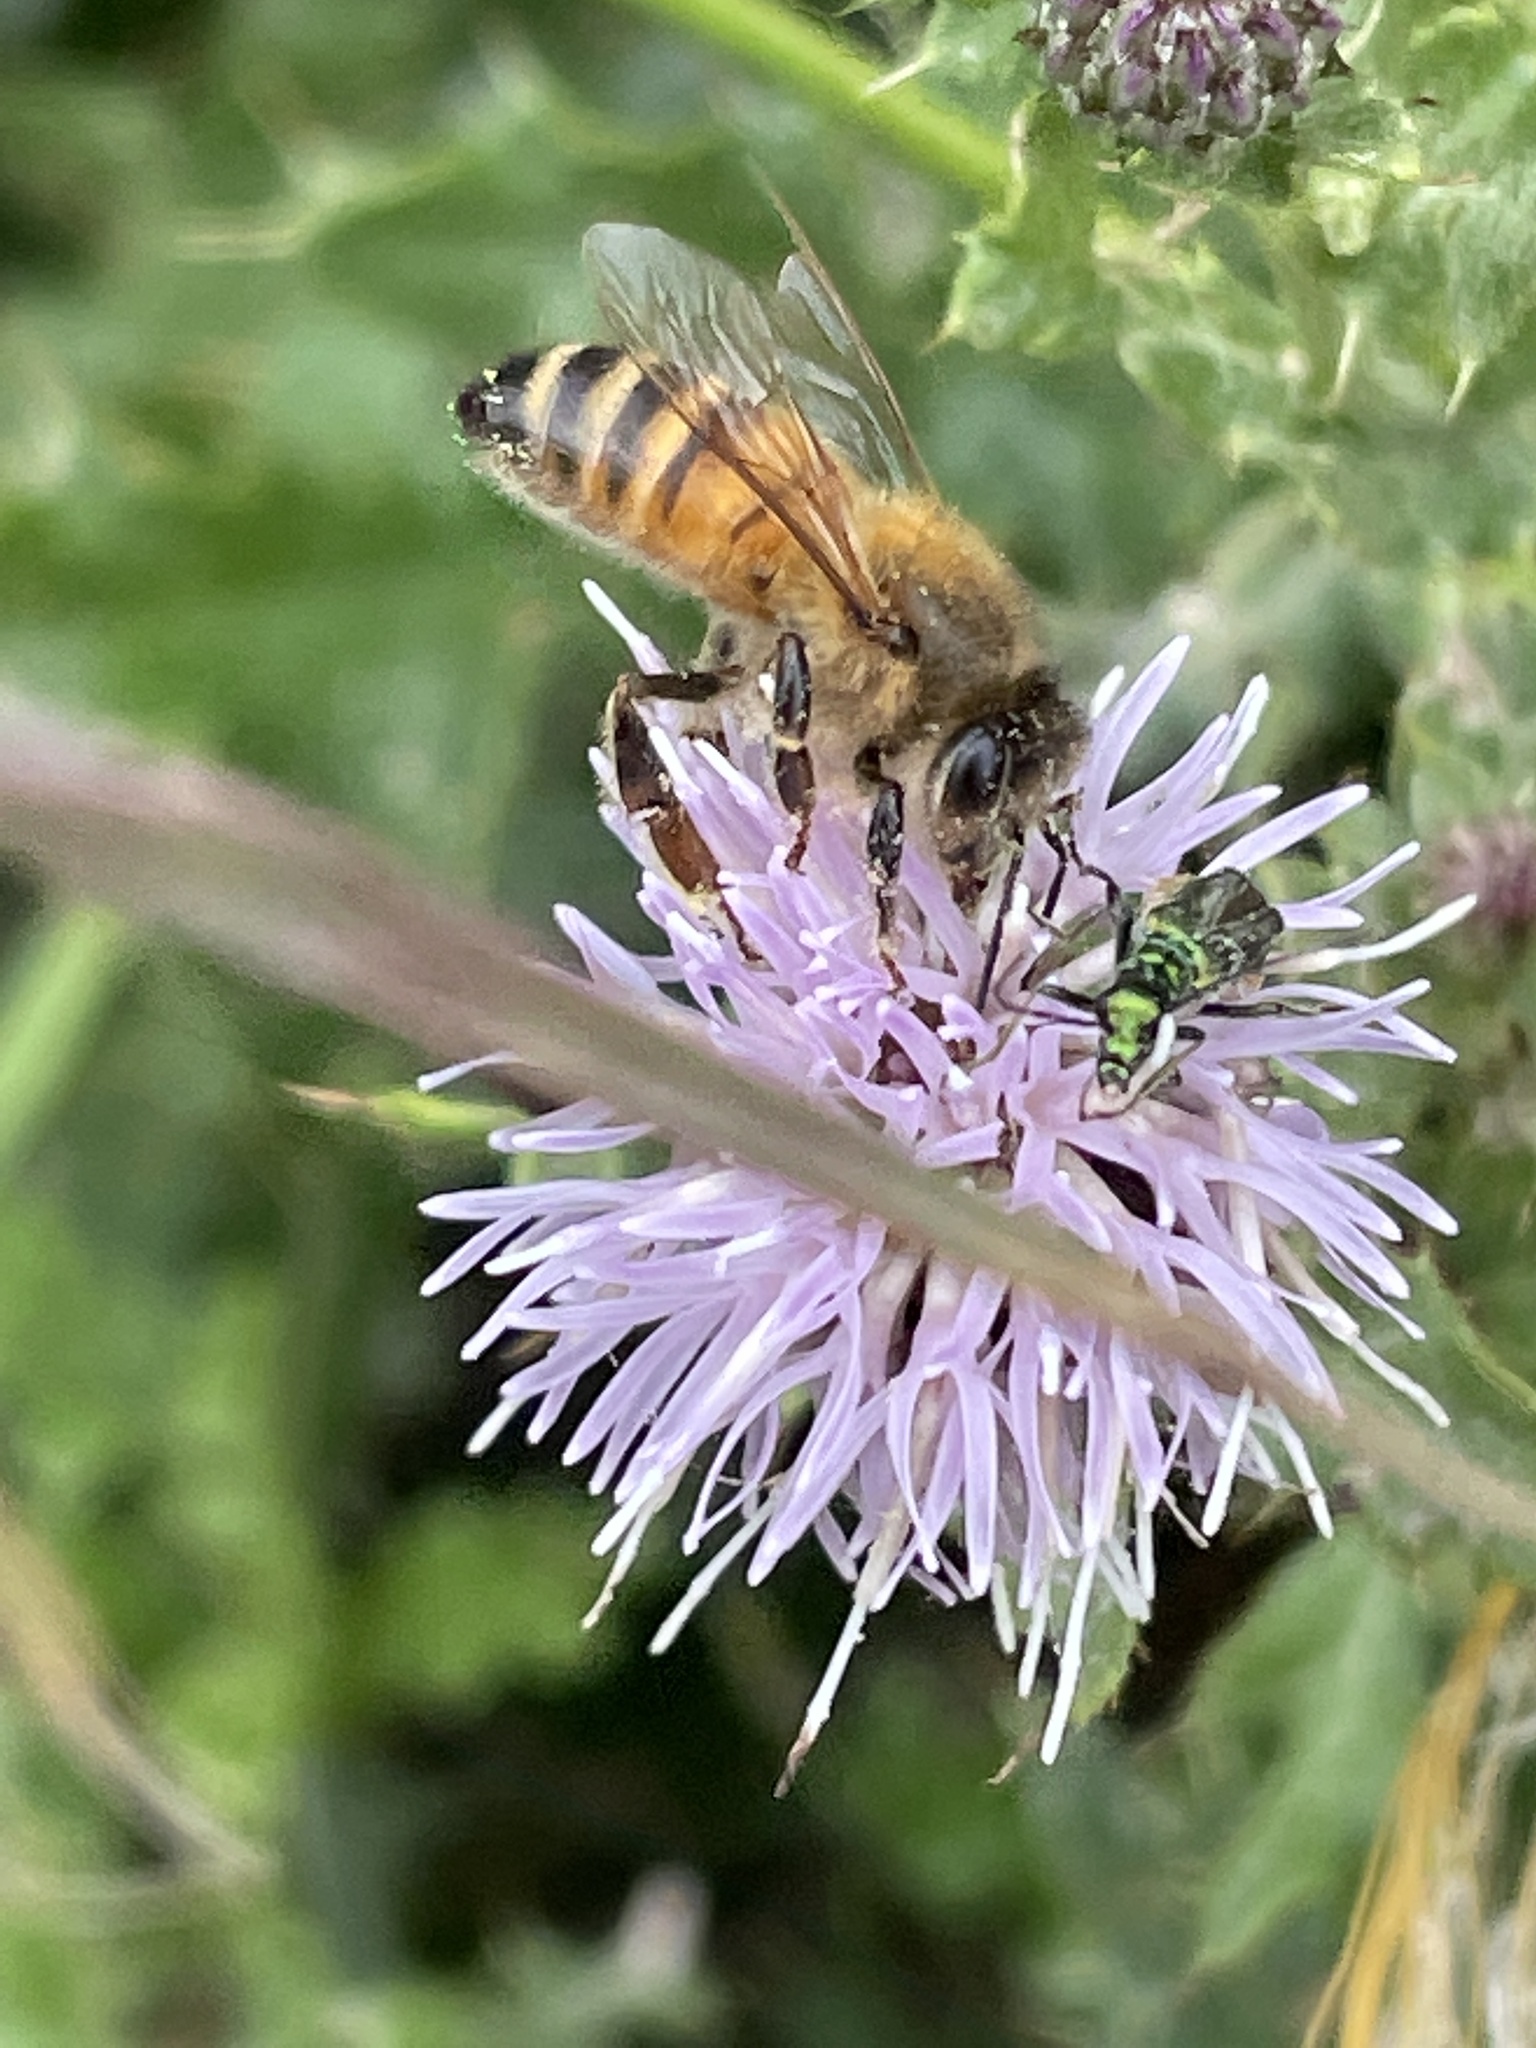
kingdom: Animalia
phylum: Arthropoda
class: Insecta
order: Hymenoptera
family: Apidae
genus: Apis
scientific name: Apis mellifera
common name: Honey bee
